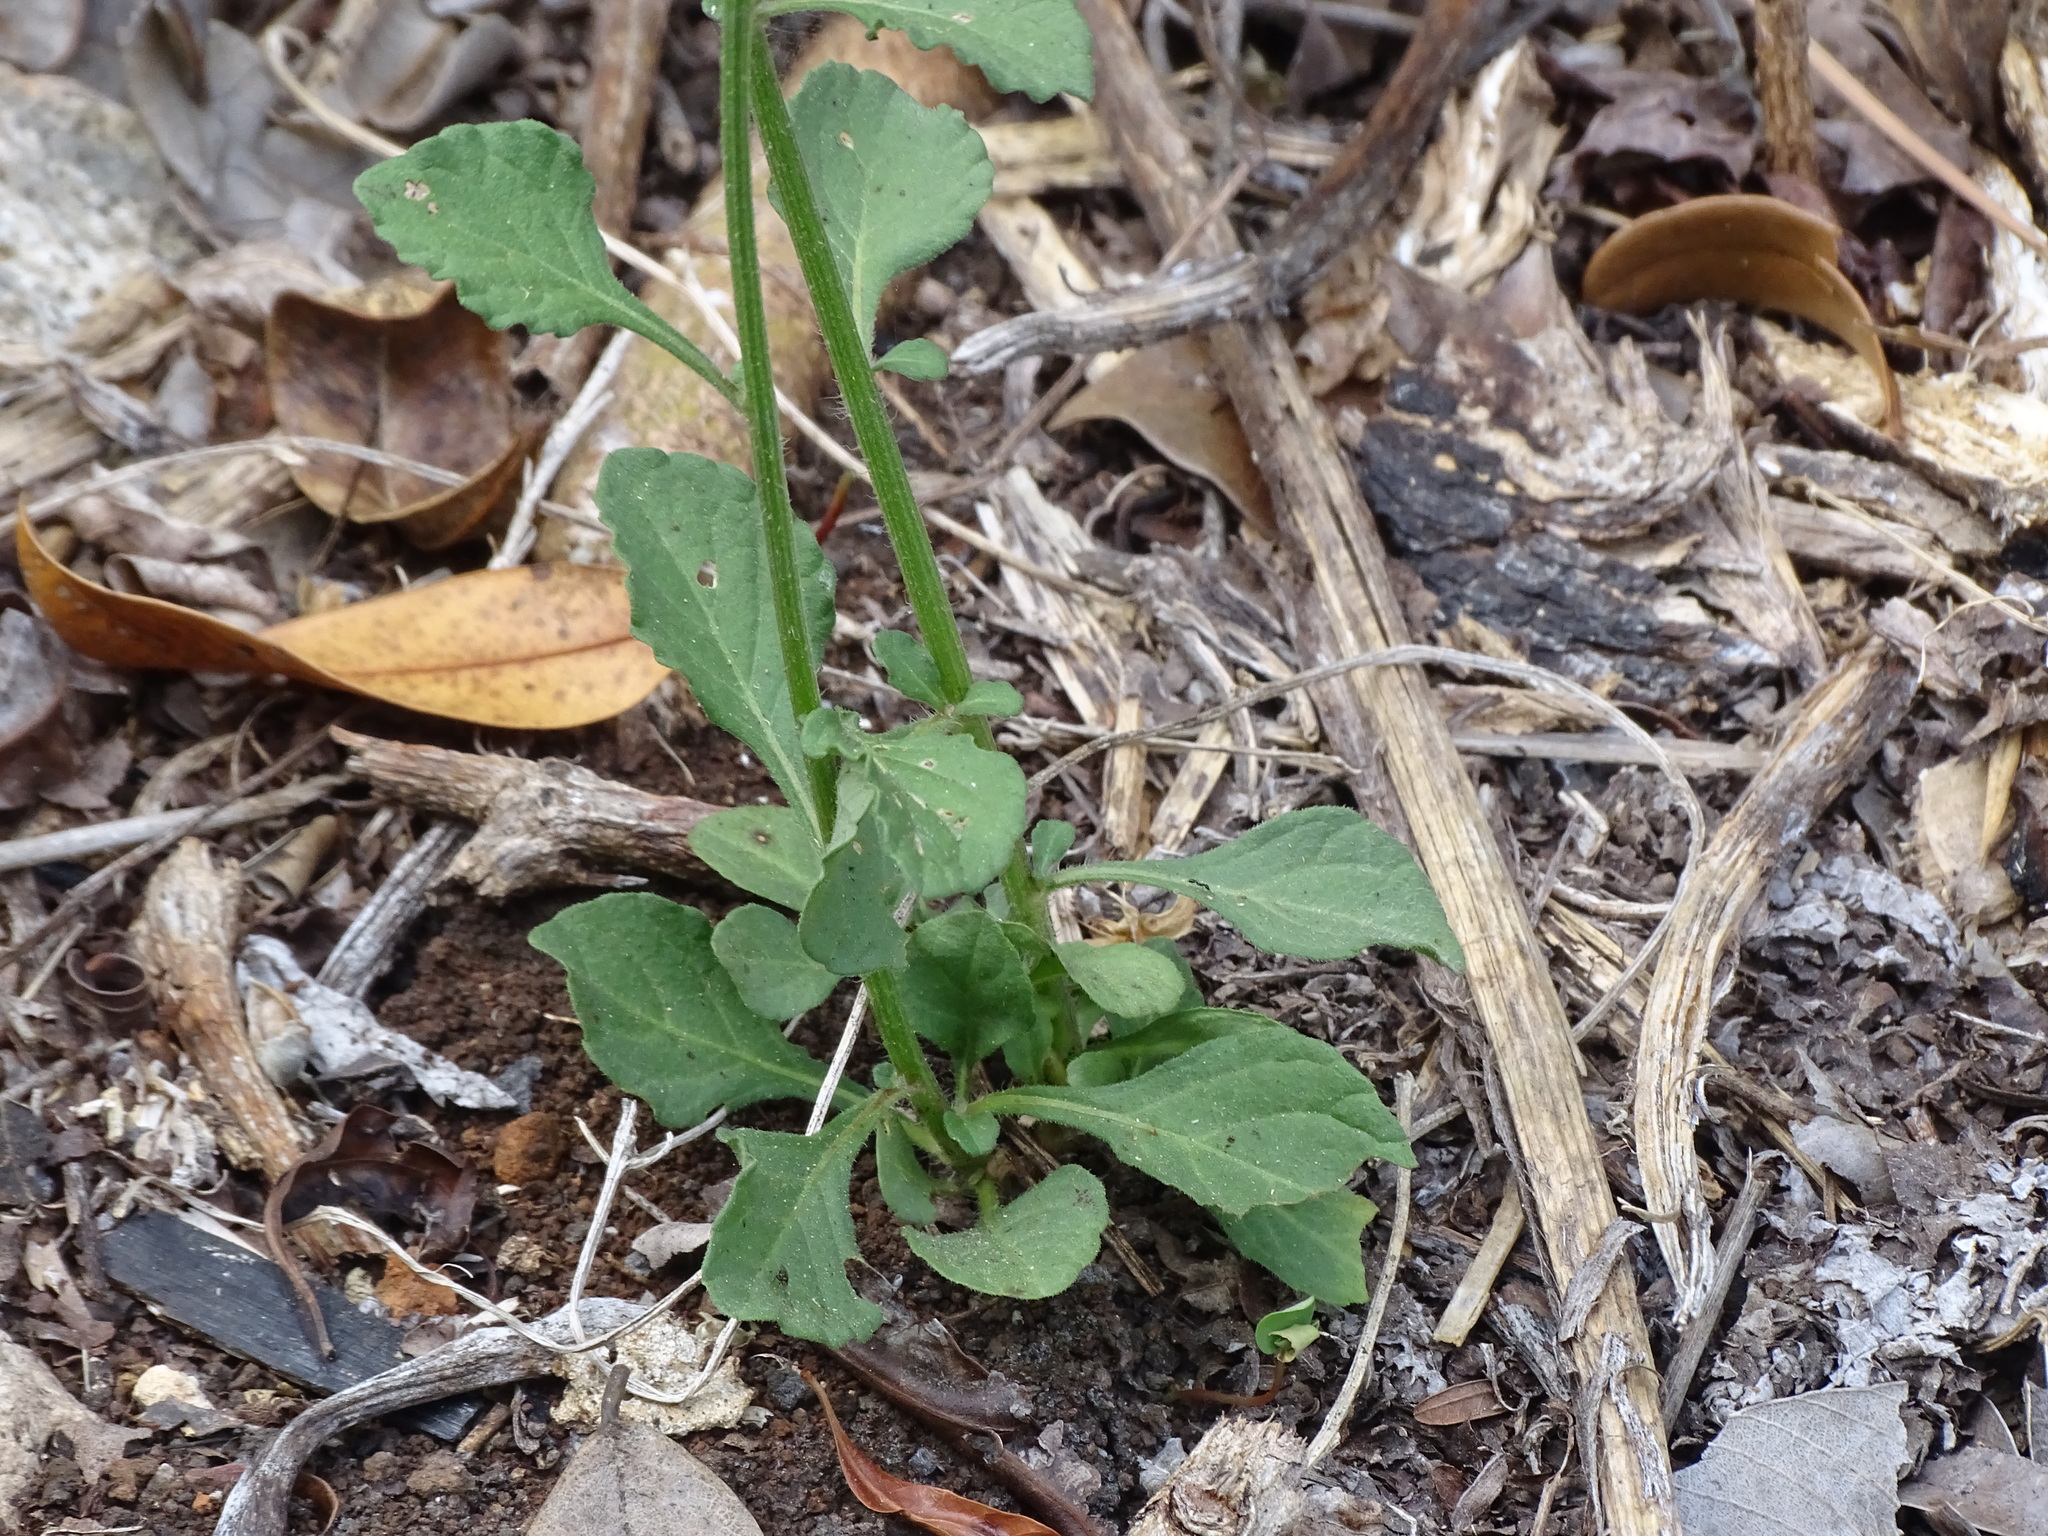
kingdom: Plantae
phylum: Tracheophyta
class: Magnoliopsida
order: Asterales
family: Asteraceae
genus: Cyanthillium
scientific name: Cyanthillium cinereum
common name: Little ironweed
